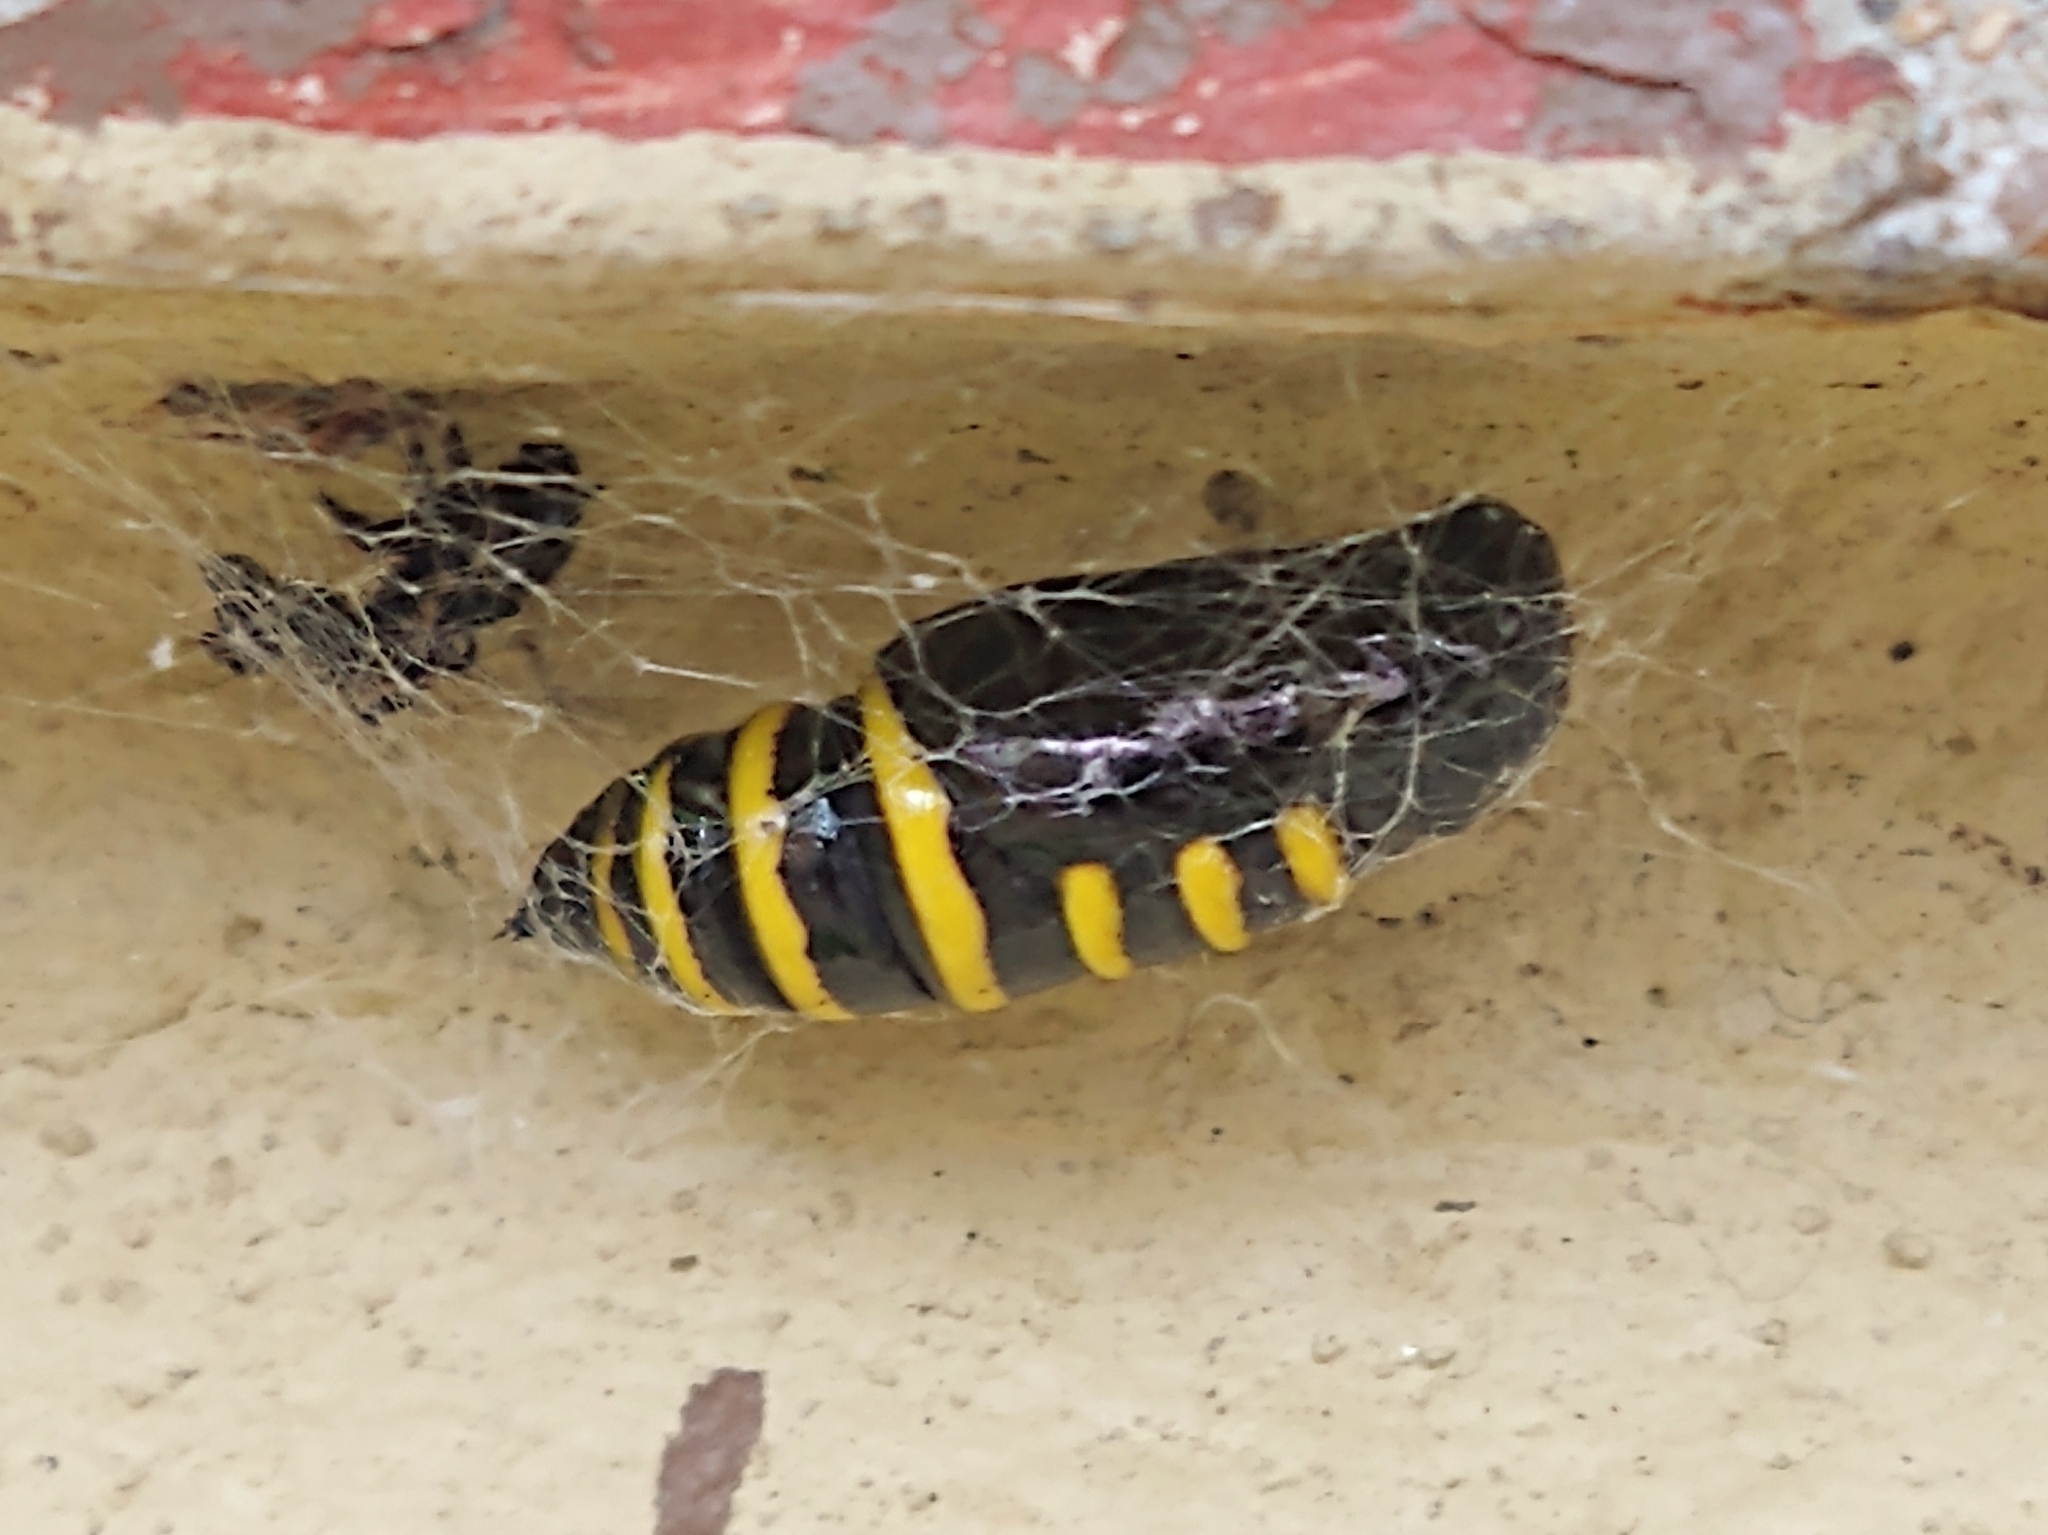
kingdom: Animalia
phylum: Arthropoda
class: Insecta
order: Lepidoptera
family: Geometridae
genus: Abraxas
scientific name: Abraxas grossulariata
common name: Magpie
